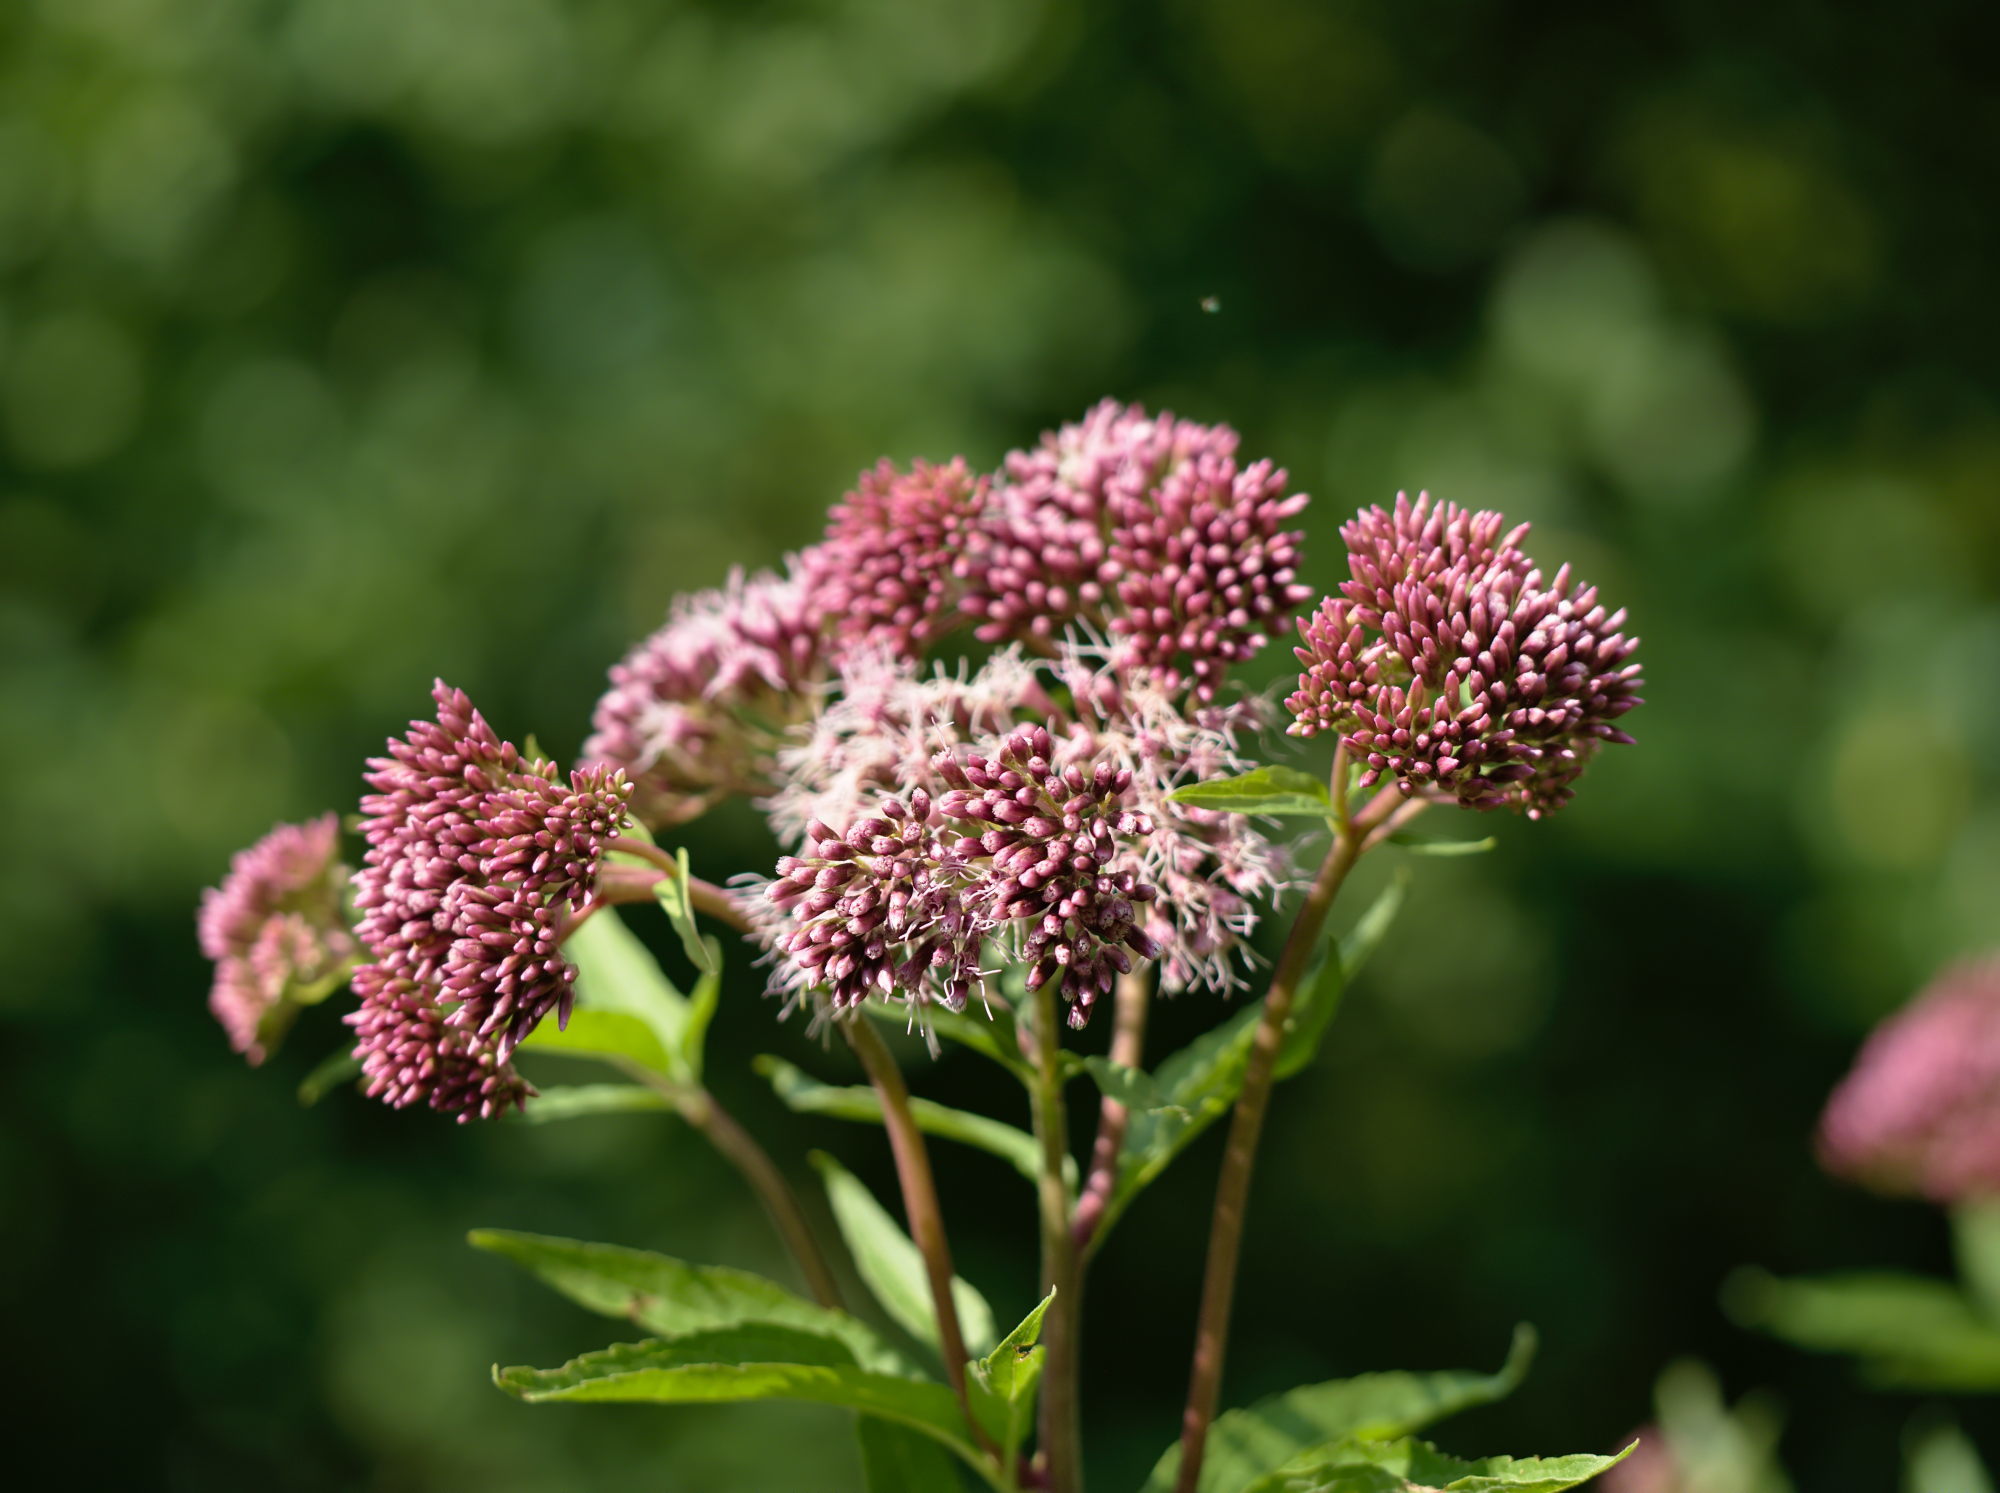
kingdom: Plantae
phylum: Tracheophyta
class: Magnoliopsida
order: Asterales
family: Asteraceae
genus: Eupatorium
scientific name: Eupatorium cannabinum
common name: Hemp-agrimony
